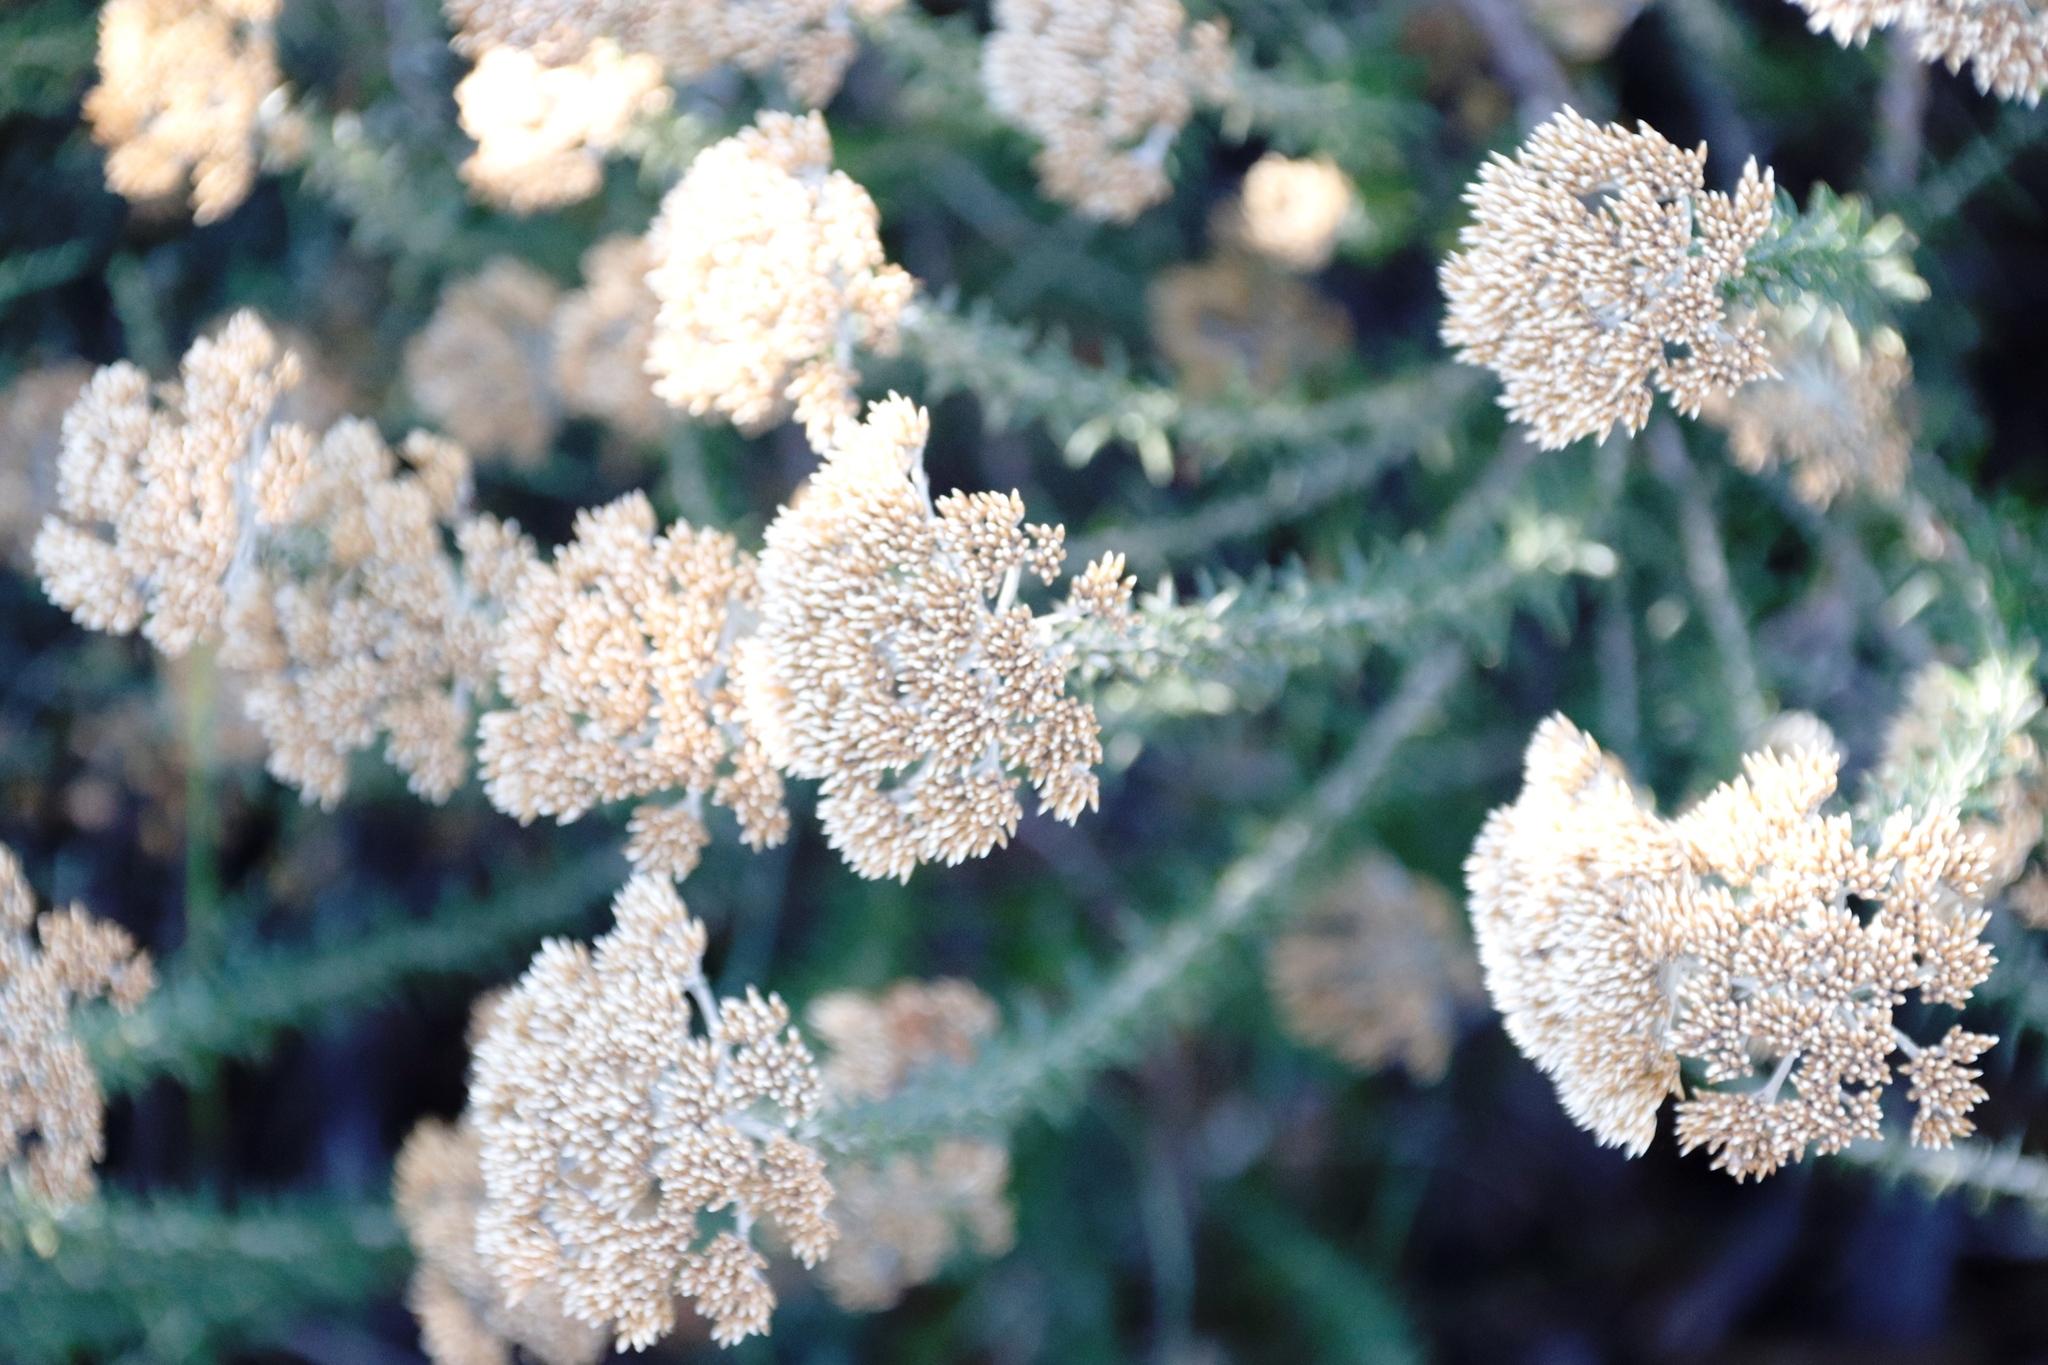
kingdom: Plantae
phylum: Tracheophyta
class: Magnoliopsida
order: Asterales
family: Asteraceae
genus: Metalasia
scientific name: Metalasia densa
